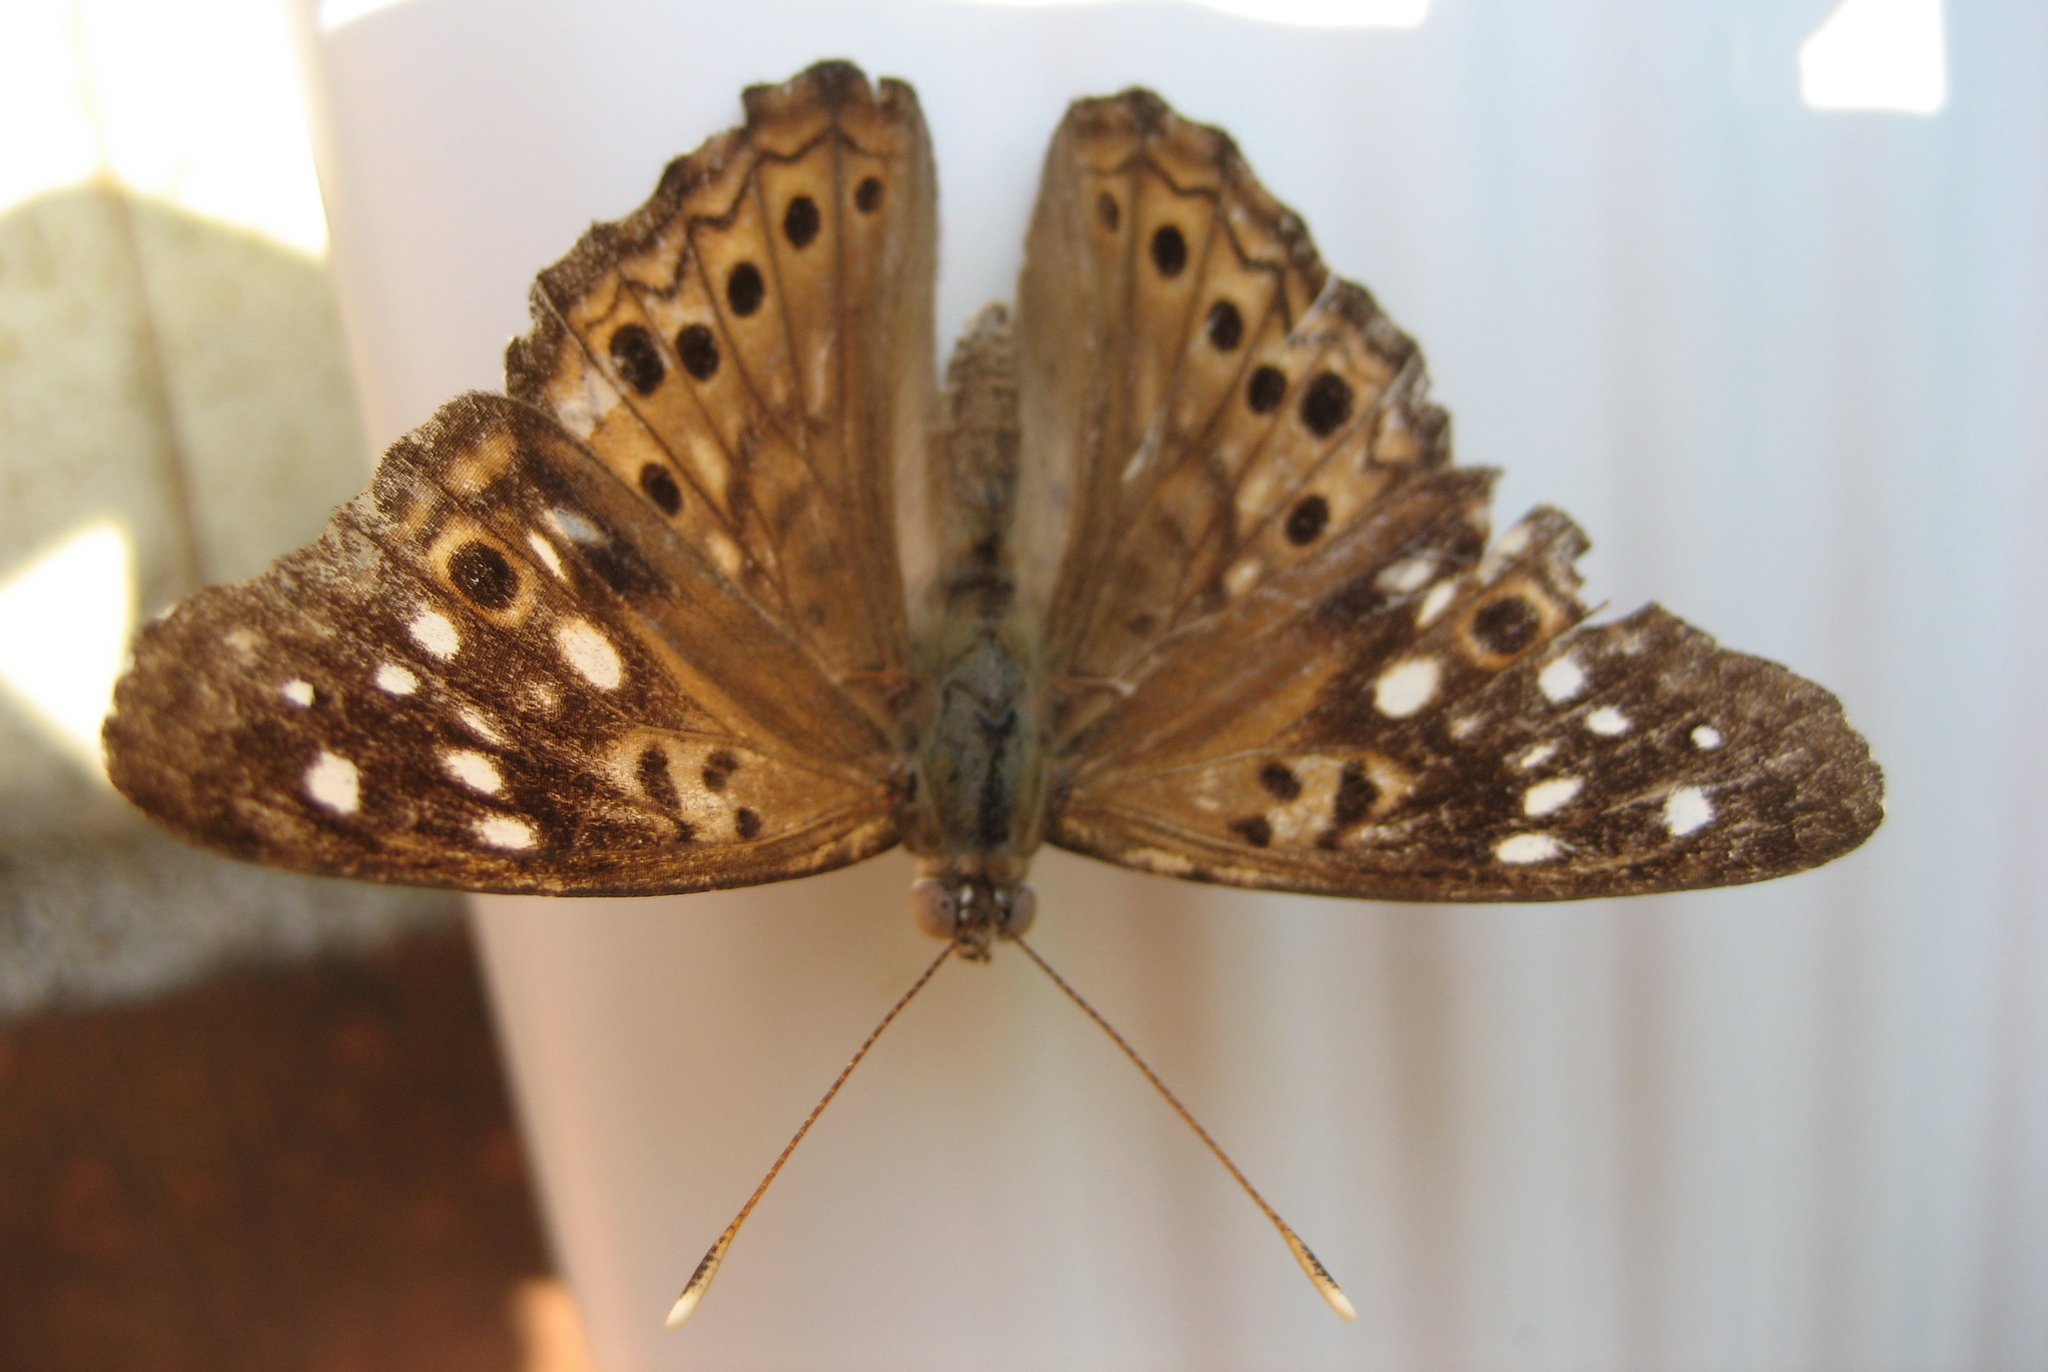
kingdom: Animalia
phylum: Arthropoda
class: Insecta
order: Lepidoptera
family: Nymphalidae
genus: Asterocampa
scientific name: Asterocampa celtis
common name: Hackberry emperor
